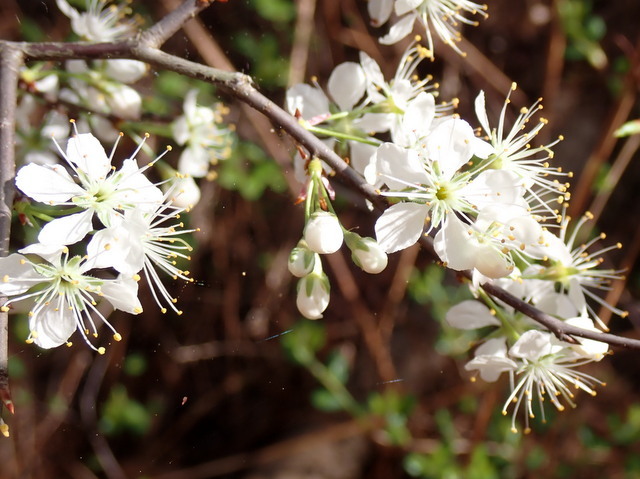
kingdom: Plantae
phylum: Tracheophyta
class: Magnoliopsida
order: Rosales
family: Rosaceae
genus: Prunus
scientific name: Prunus angustifolia
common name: Cherokee plum
